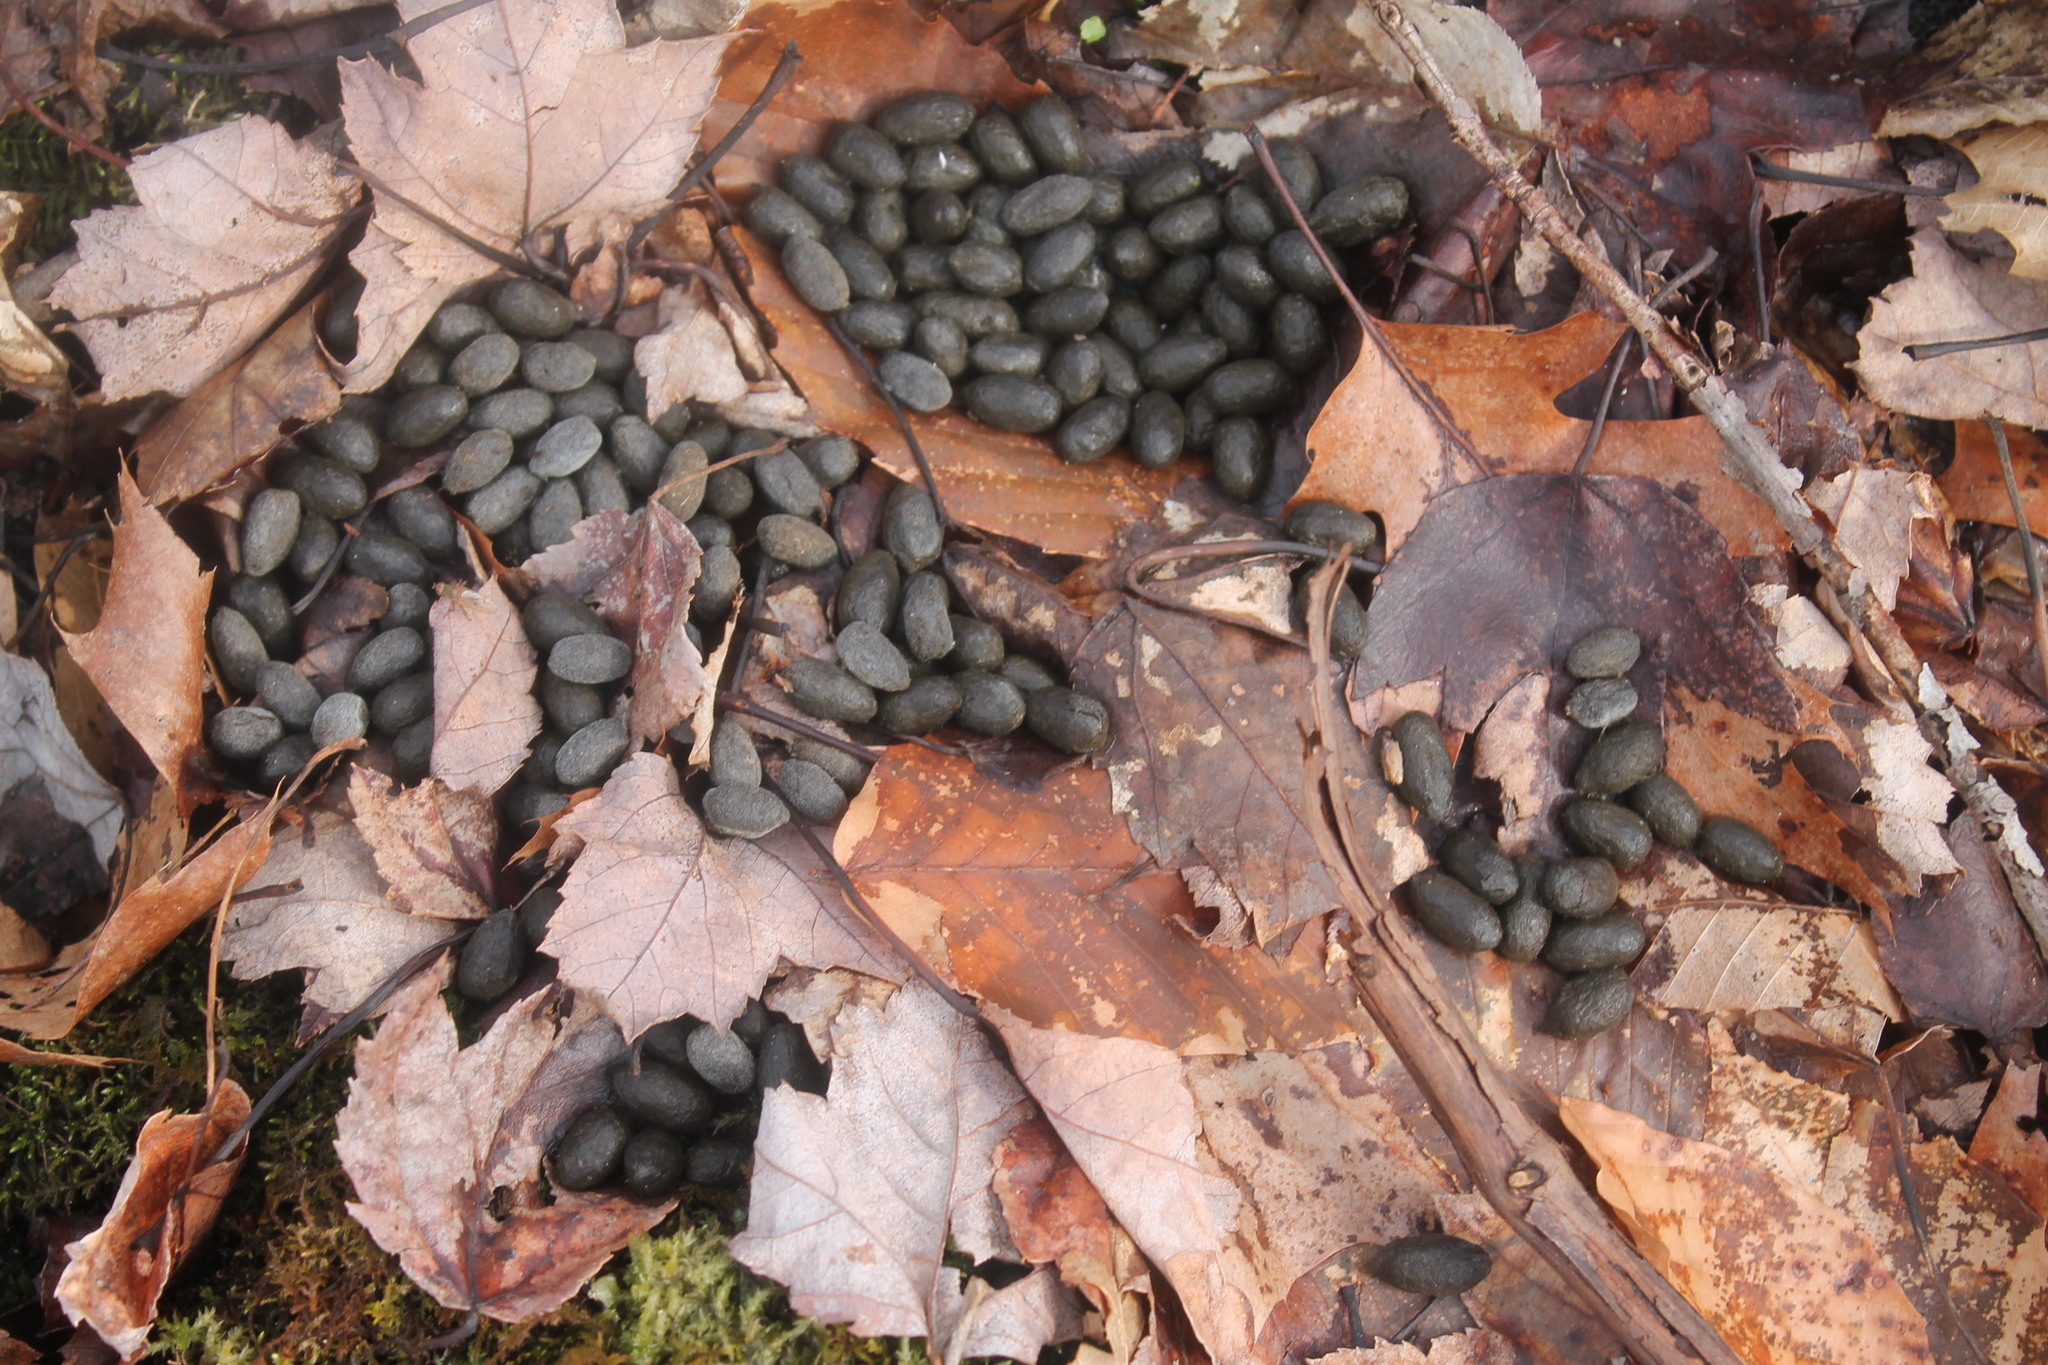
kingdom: Animalia
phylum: Chordata
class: Mammalia
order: Artiodactyla
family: Cervidae
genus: Odocoileus
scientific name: Odocoileus virginianus
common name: White-tailed deer
